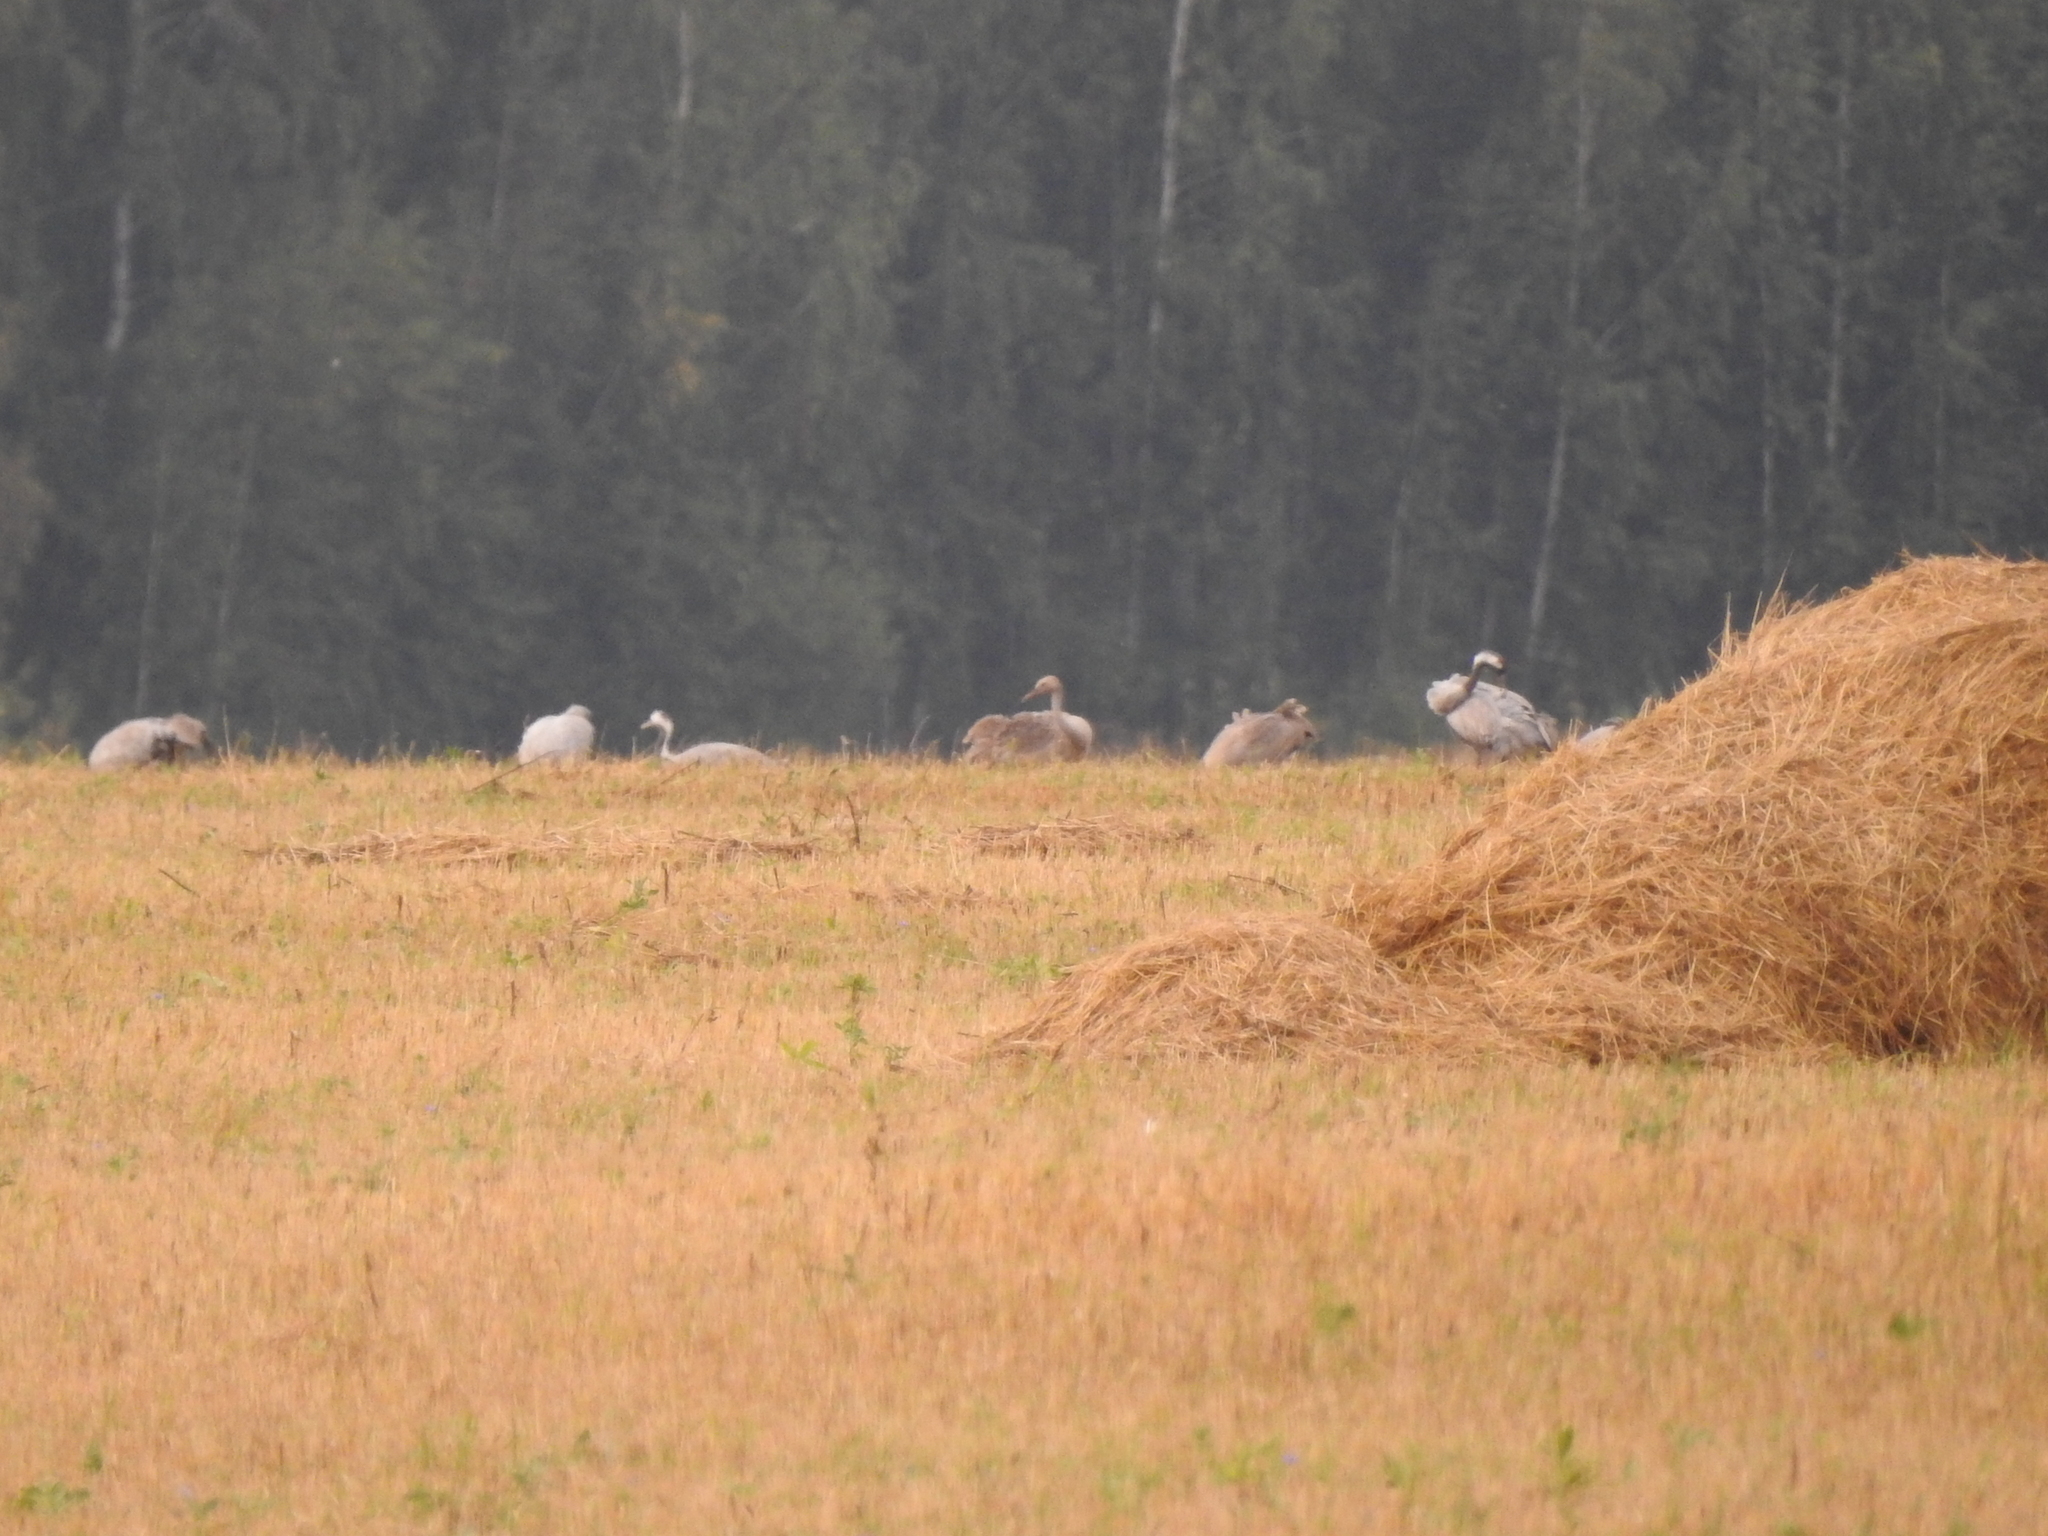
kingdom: Animalia
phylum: Chordata
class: Aves
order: Gruiformes
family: Gruidae
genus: Grus
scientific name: Grus grus
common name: Common crane
